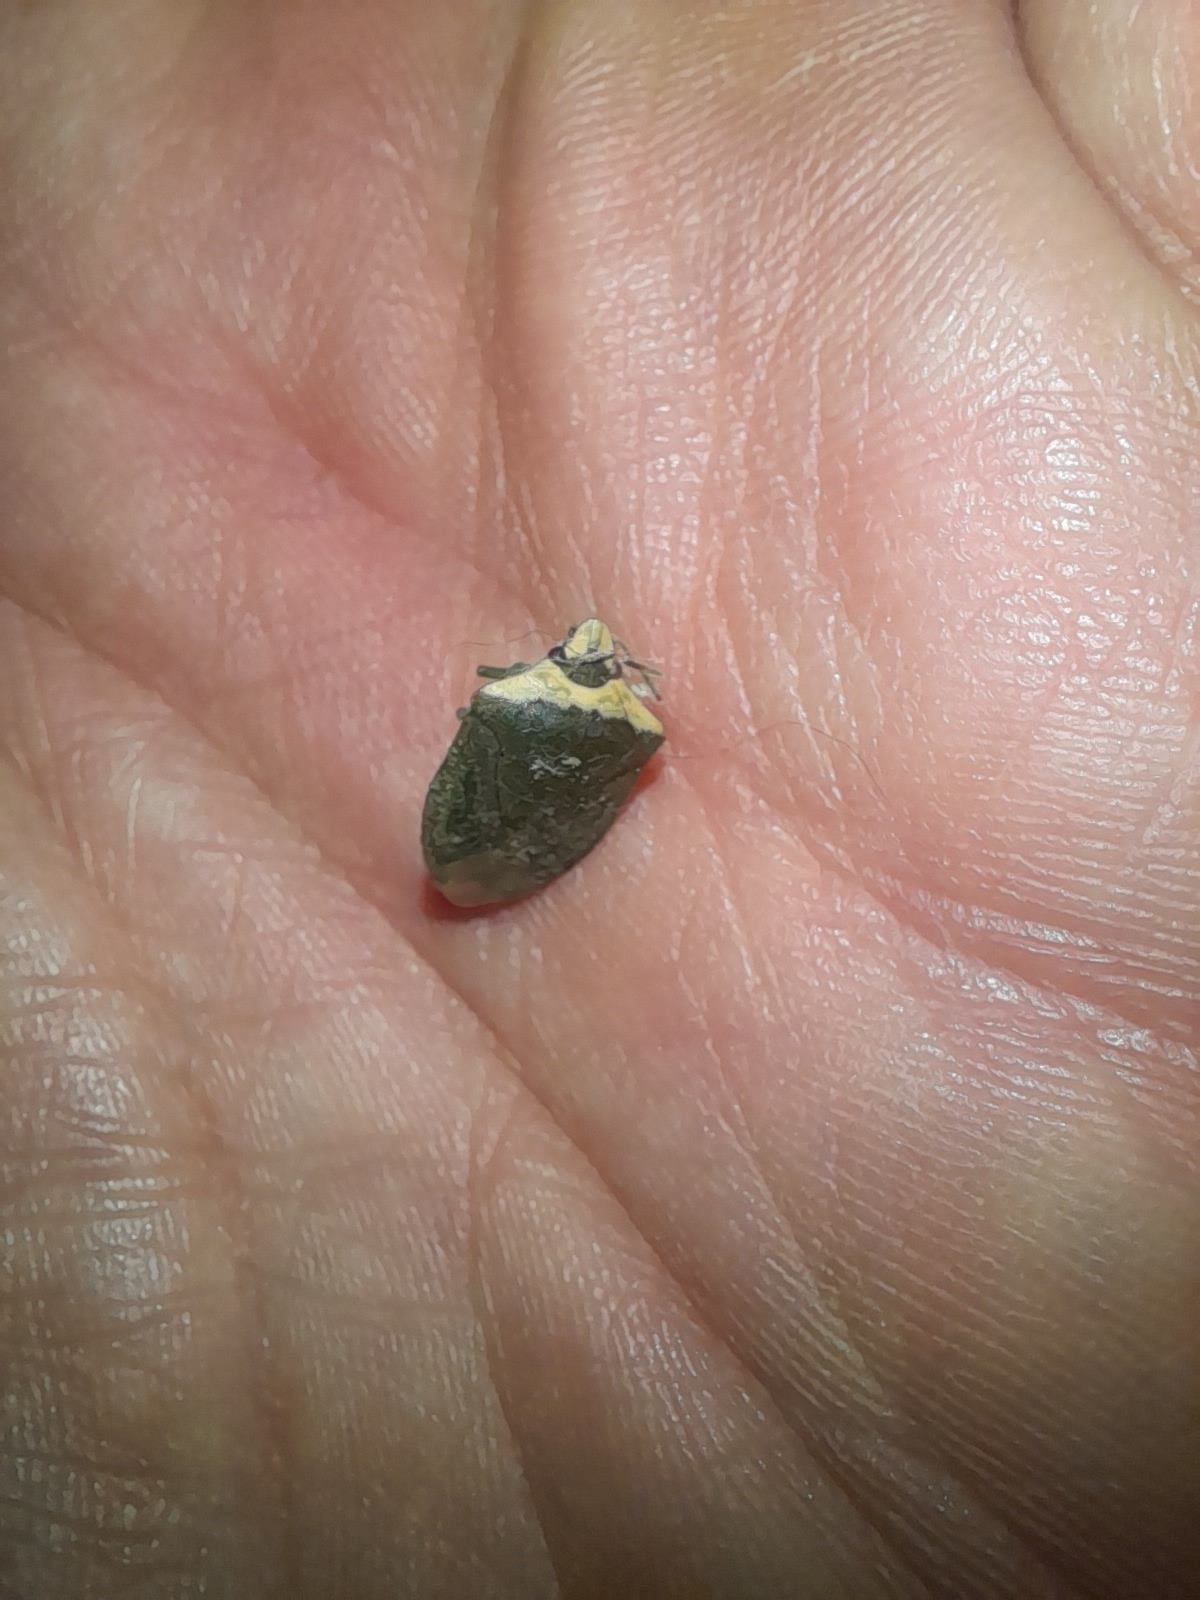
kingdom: Animalia
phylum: Arthropoda
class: Insecta
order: Hemiptera
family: Pentatomidae
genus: Nezara
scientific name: Nezara viridula
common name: Southern green stink bug
